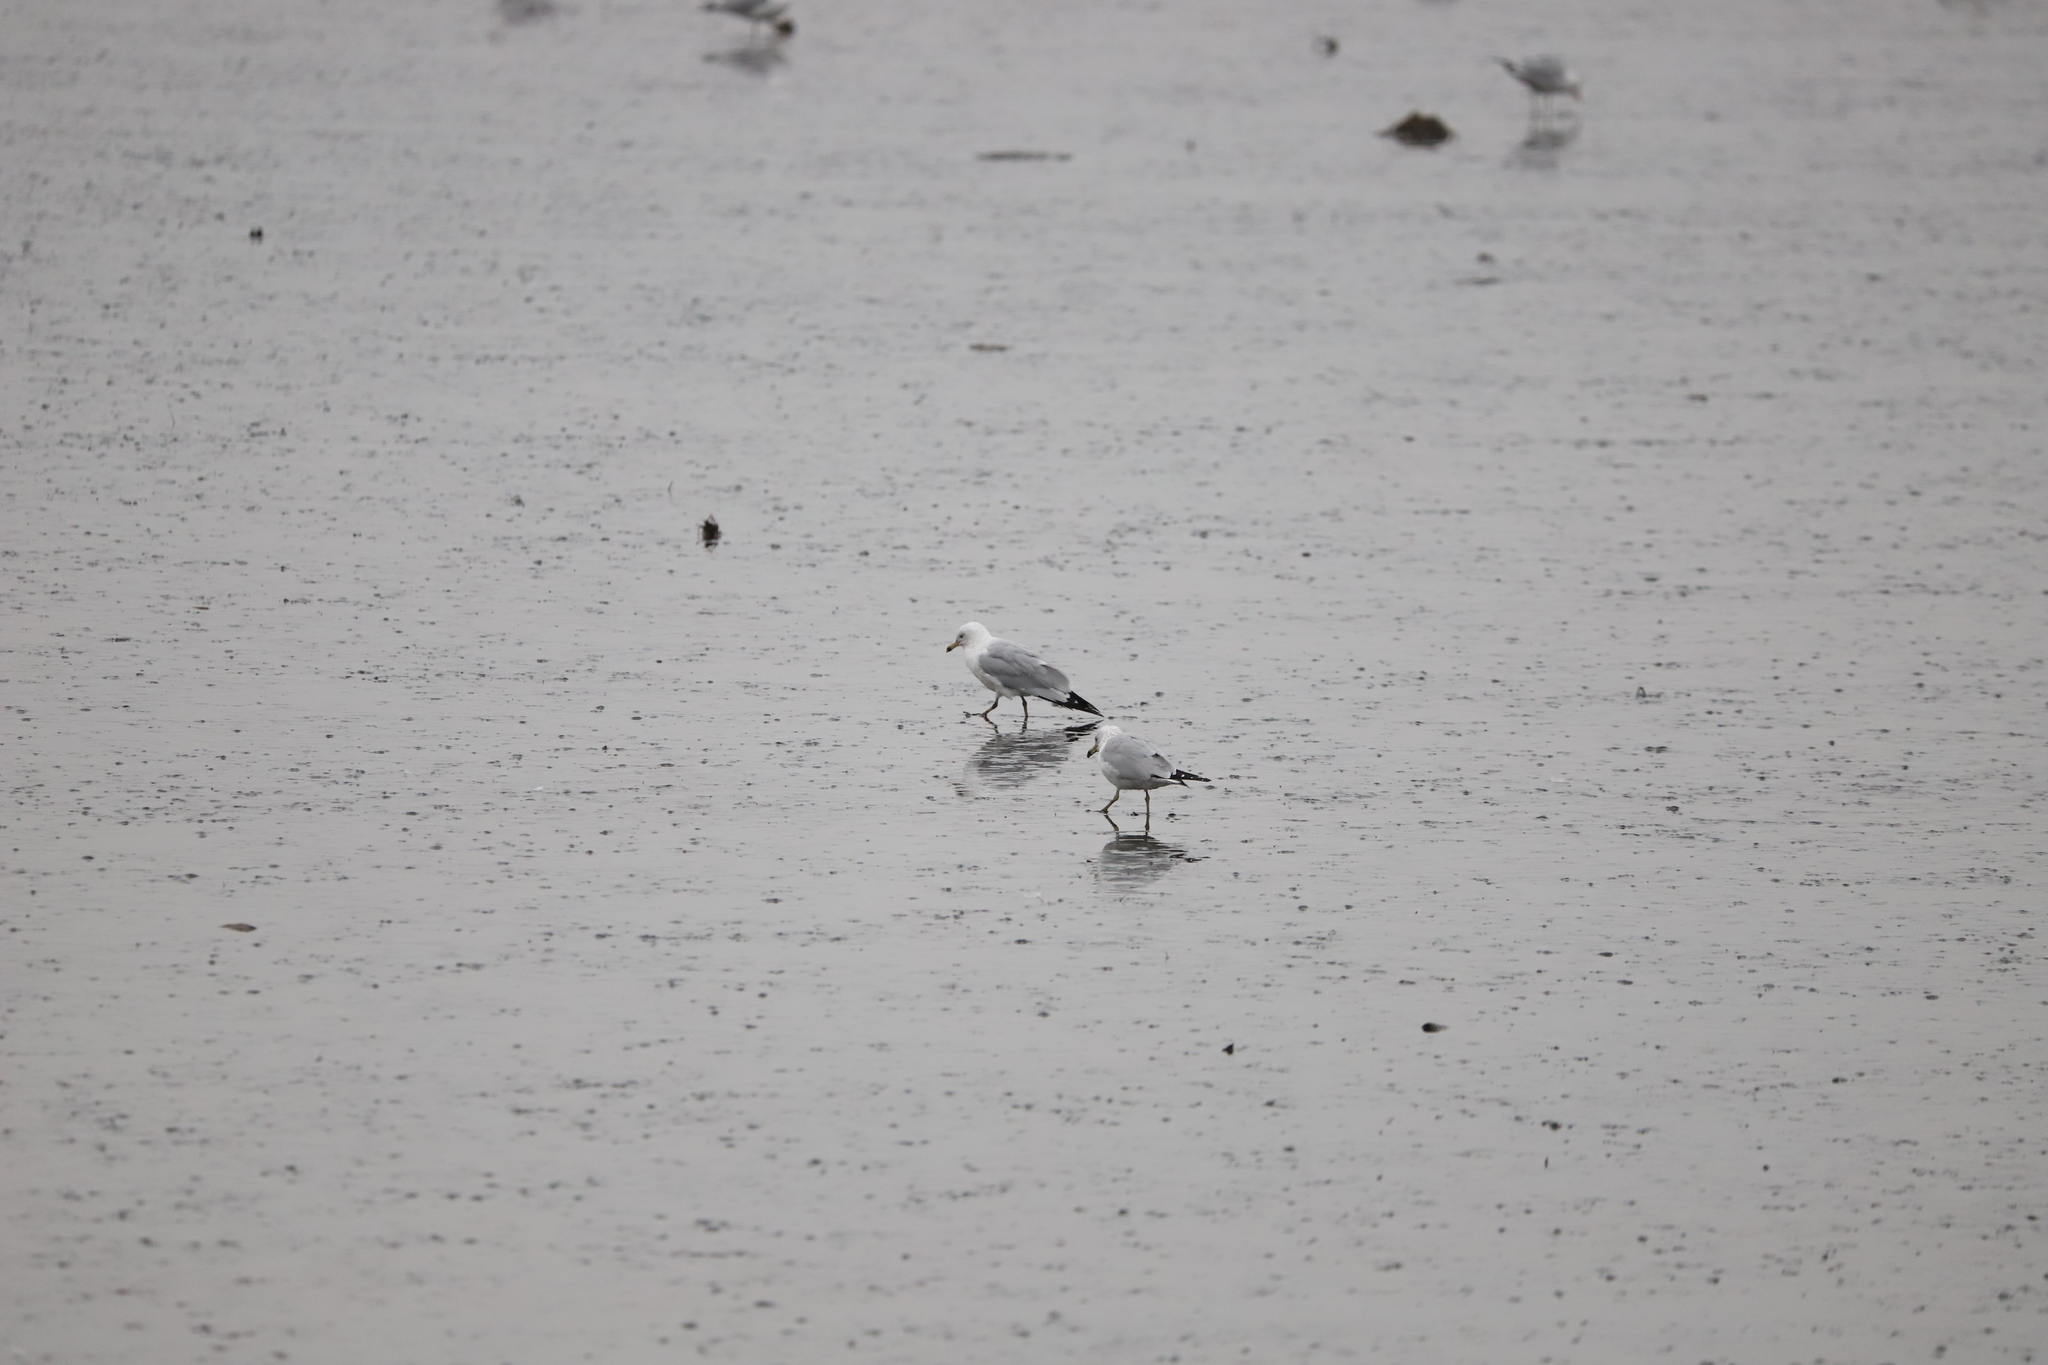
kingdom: Animalia
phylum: Chordata
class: Aves
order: Charadriiformes
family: Laridae
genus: Larus
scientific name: Larus delawarensis
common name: Ring-billed gull
